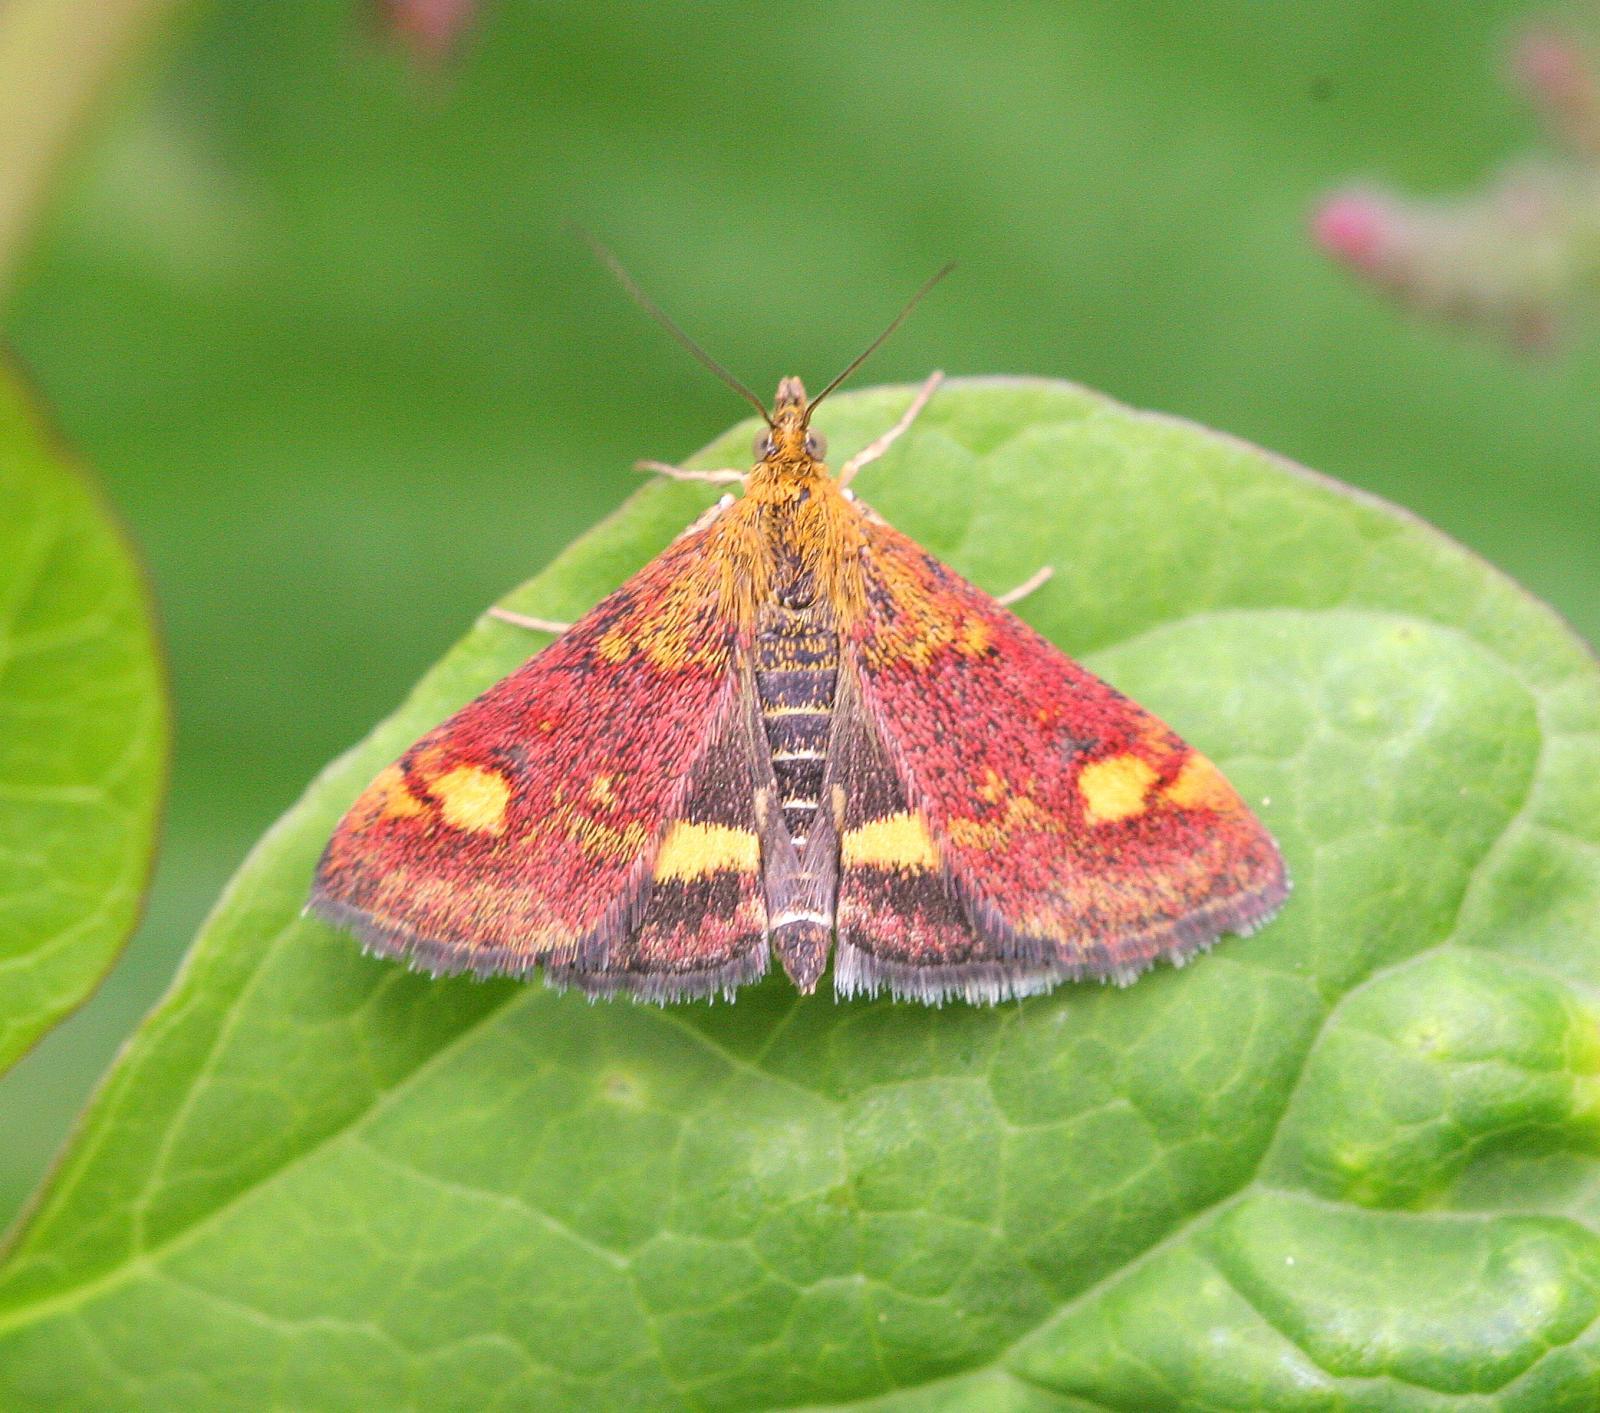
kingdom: Animalia
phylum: Arthropoda
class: Insecta
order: Lepidoptera
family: Crambidae
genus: Pyrausta
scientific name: Pyrausta aurata
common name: Small purple & gold
